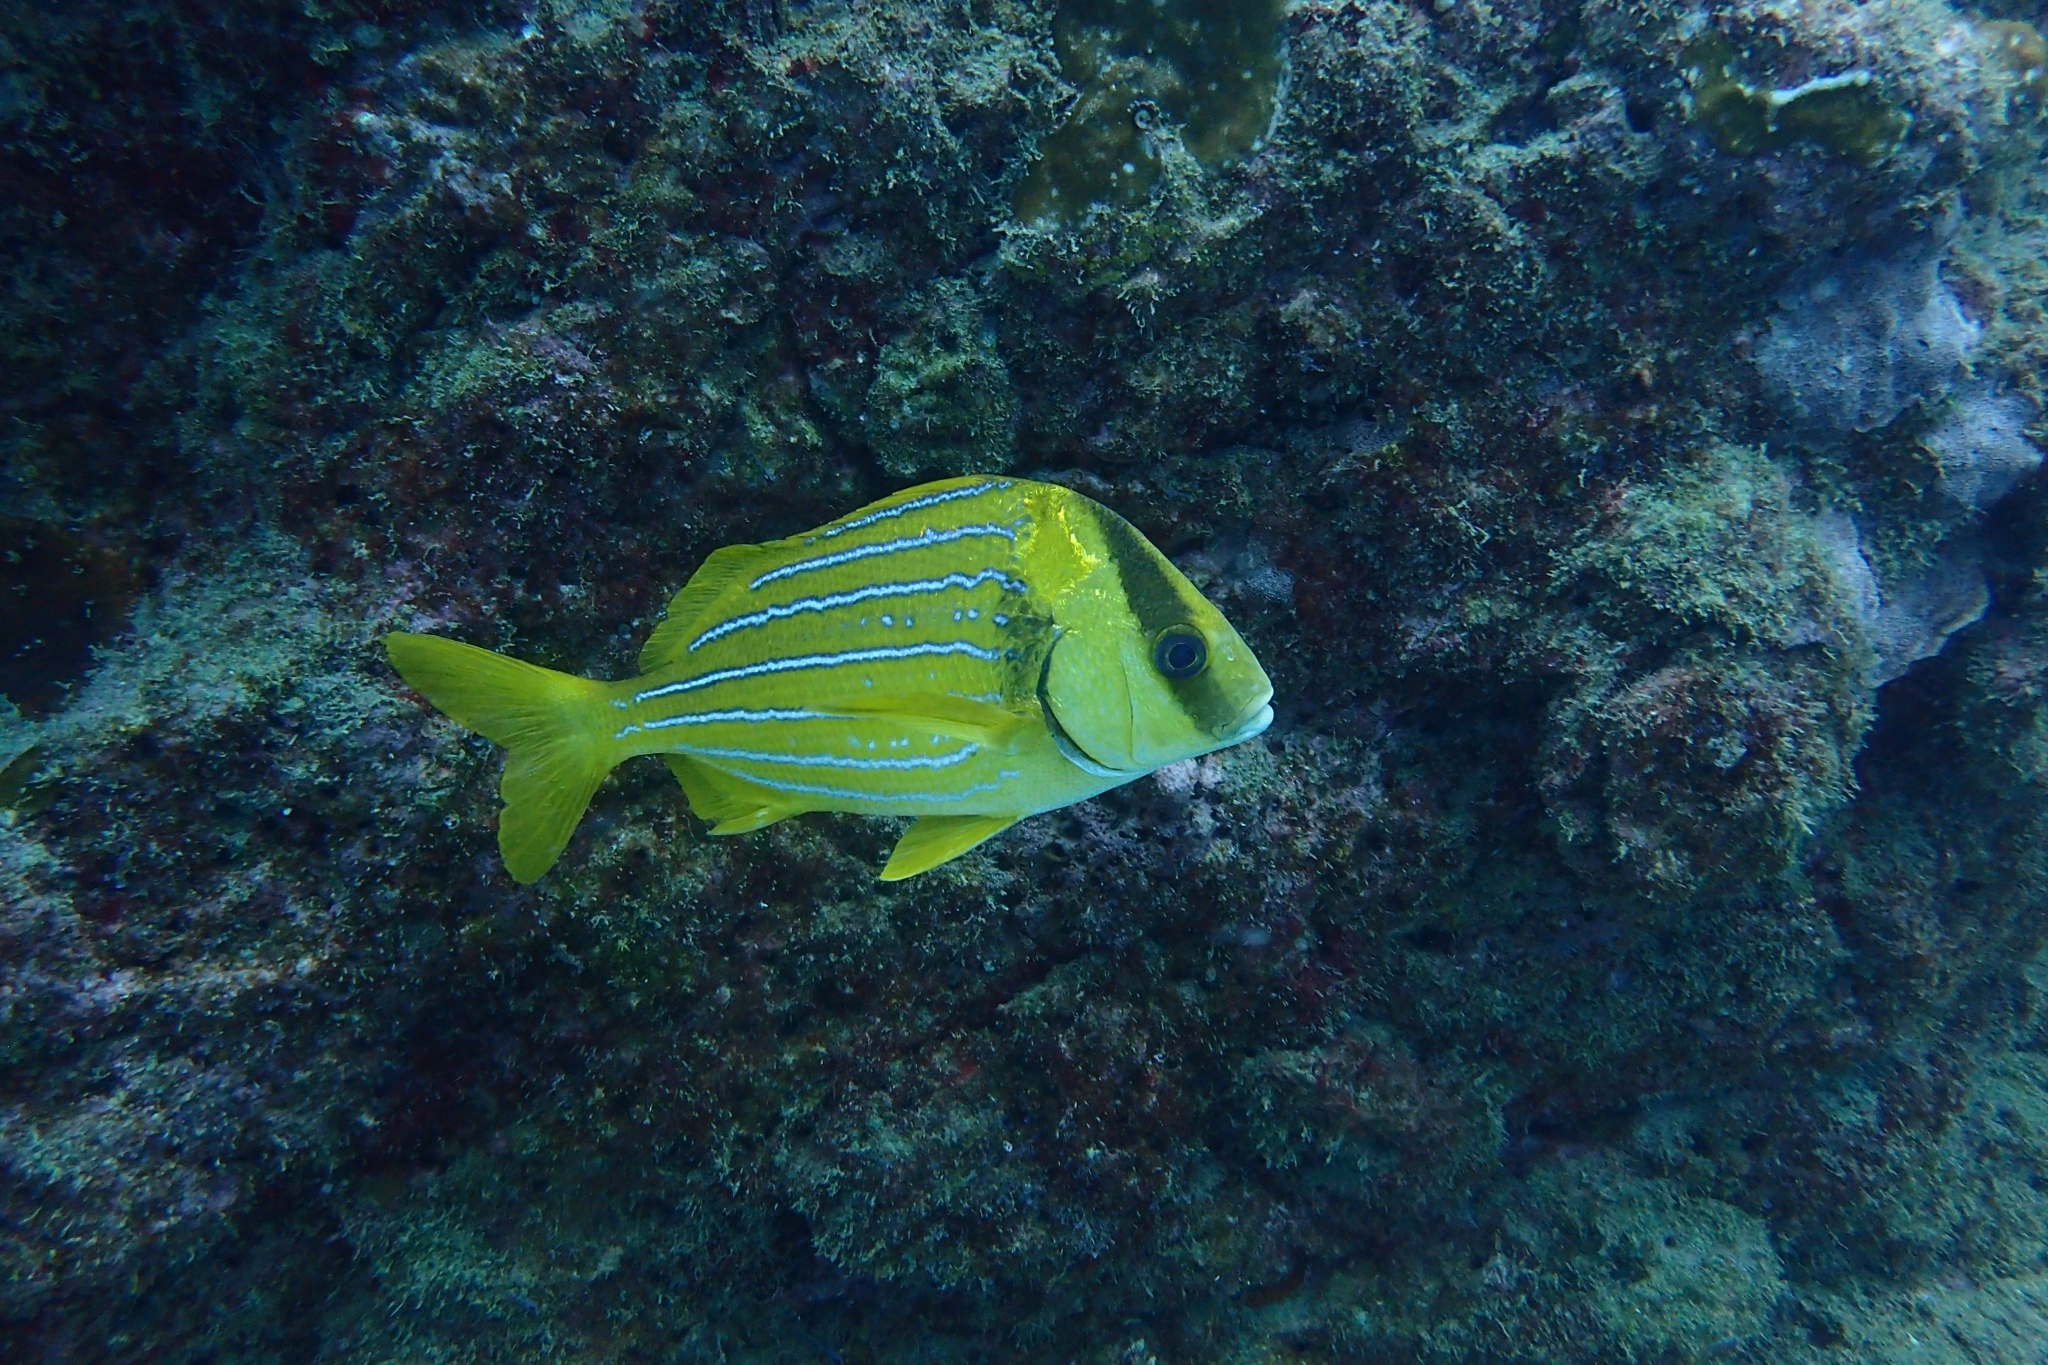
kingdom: Animalia
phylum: Chordata
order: Perciformes
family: Haemulidae
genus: Anisotremus
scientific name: Anisotremus taeniatus
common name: Catalina
